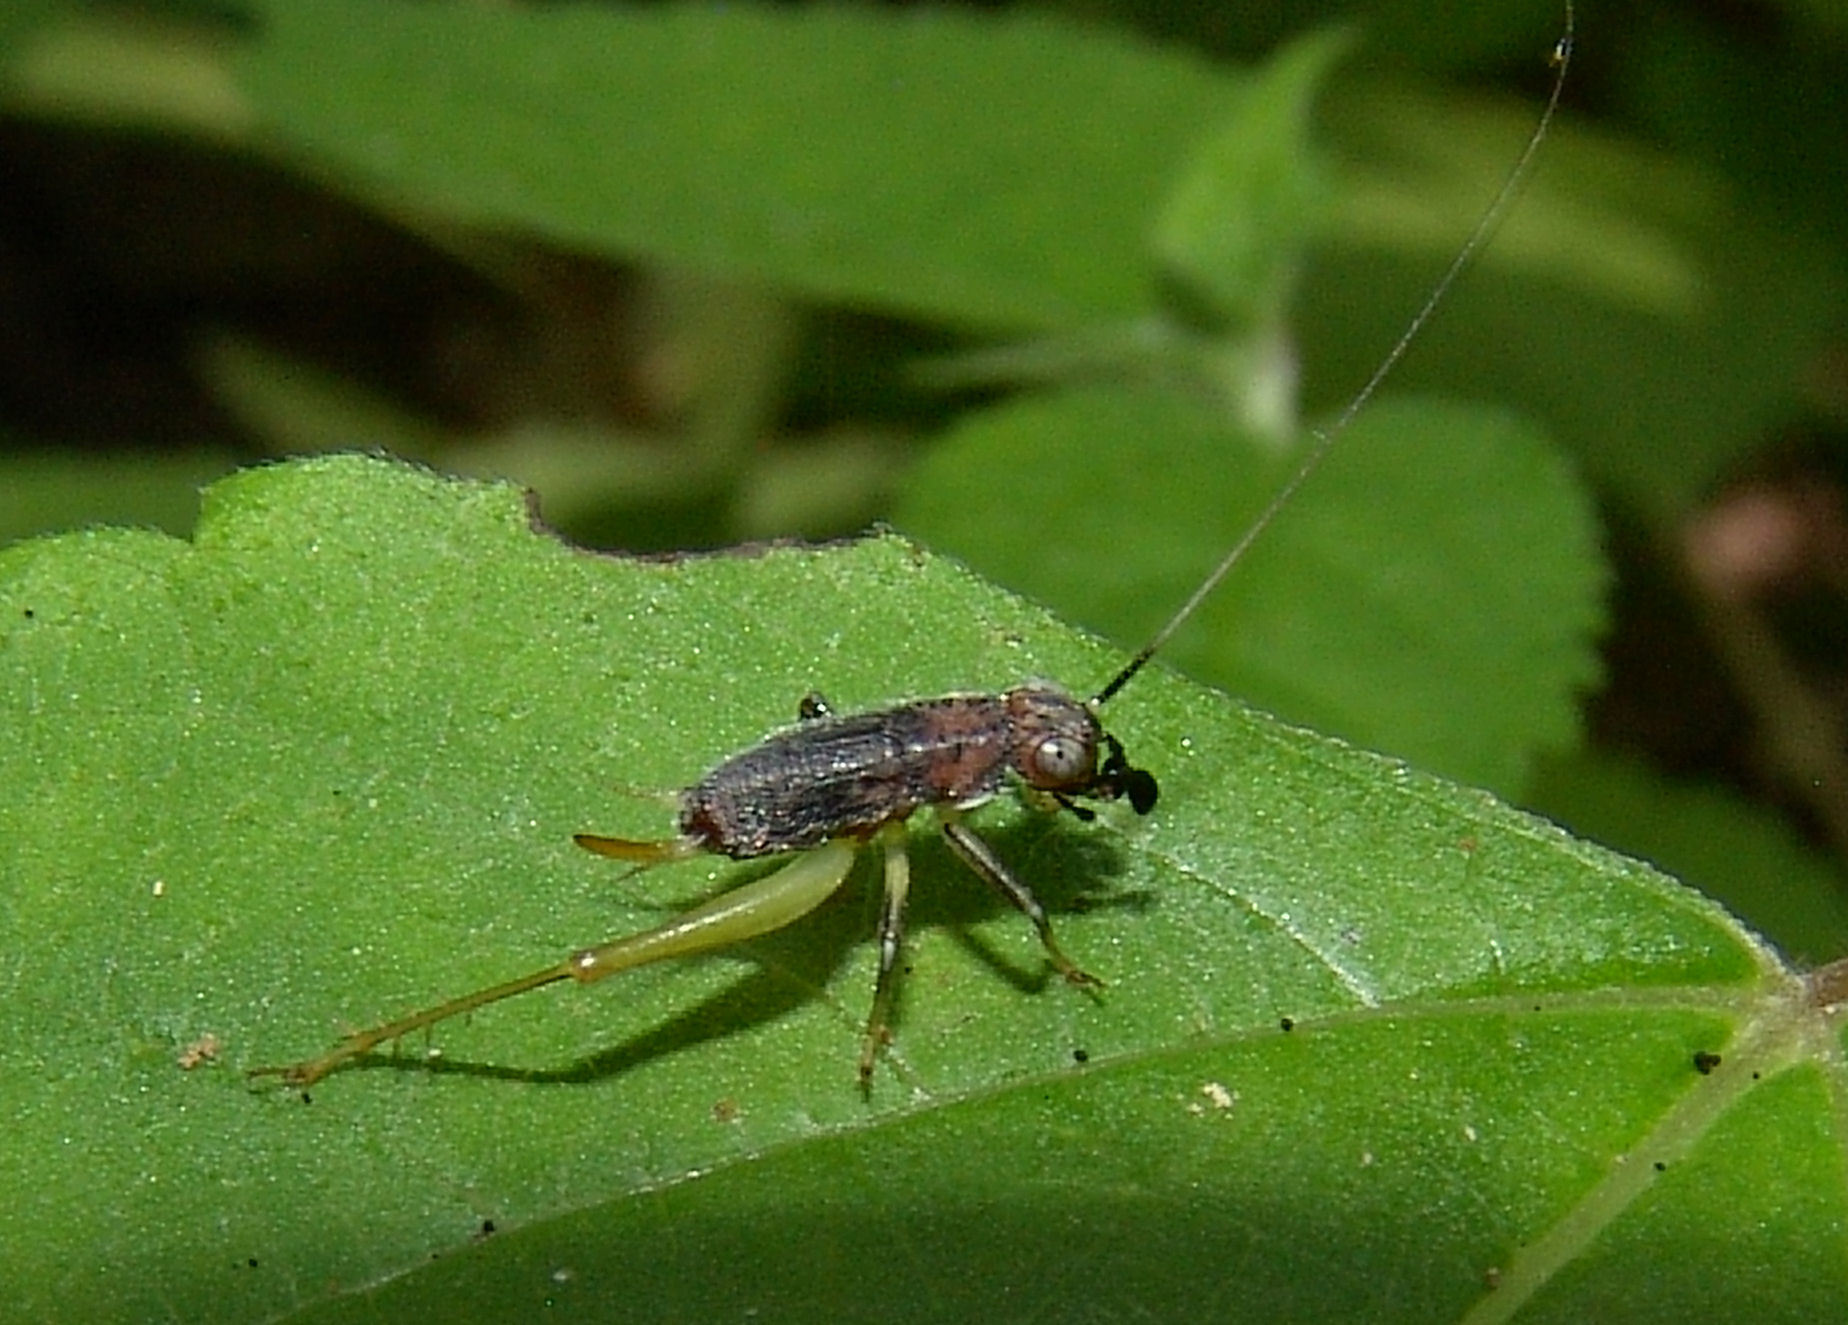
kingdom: Animalia
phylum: Arthropoda
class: Insecta
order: Orthoptera
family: Trigonidiidae
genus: Phyllopalpus
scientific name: Phyllopalpus pulchellus
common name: Handsome trig
